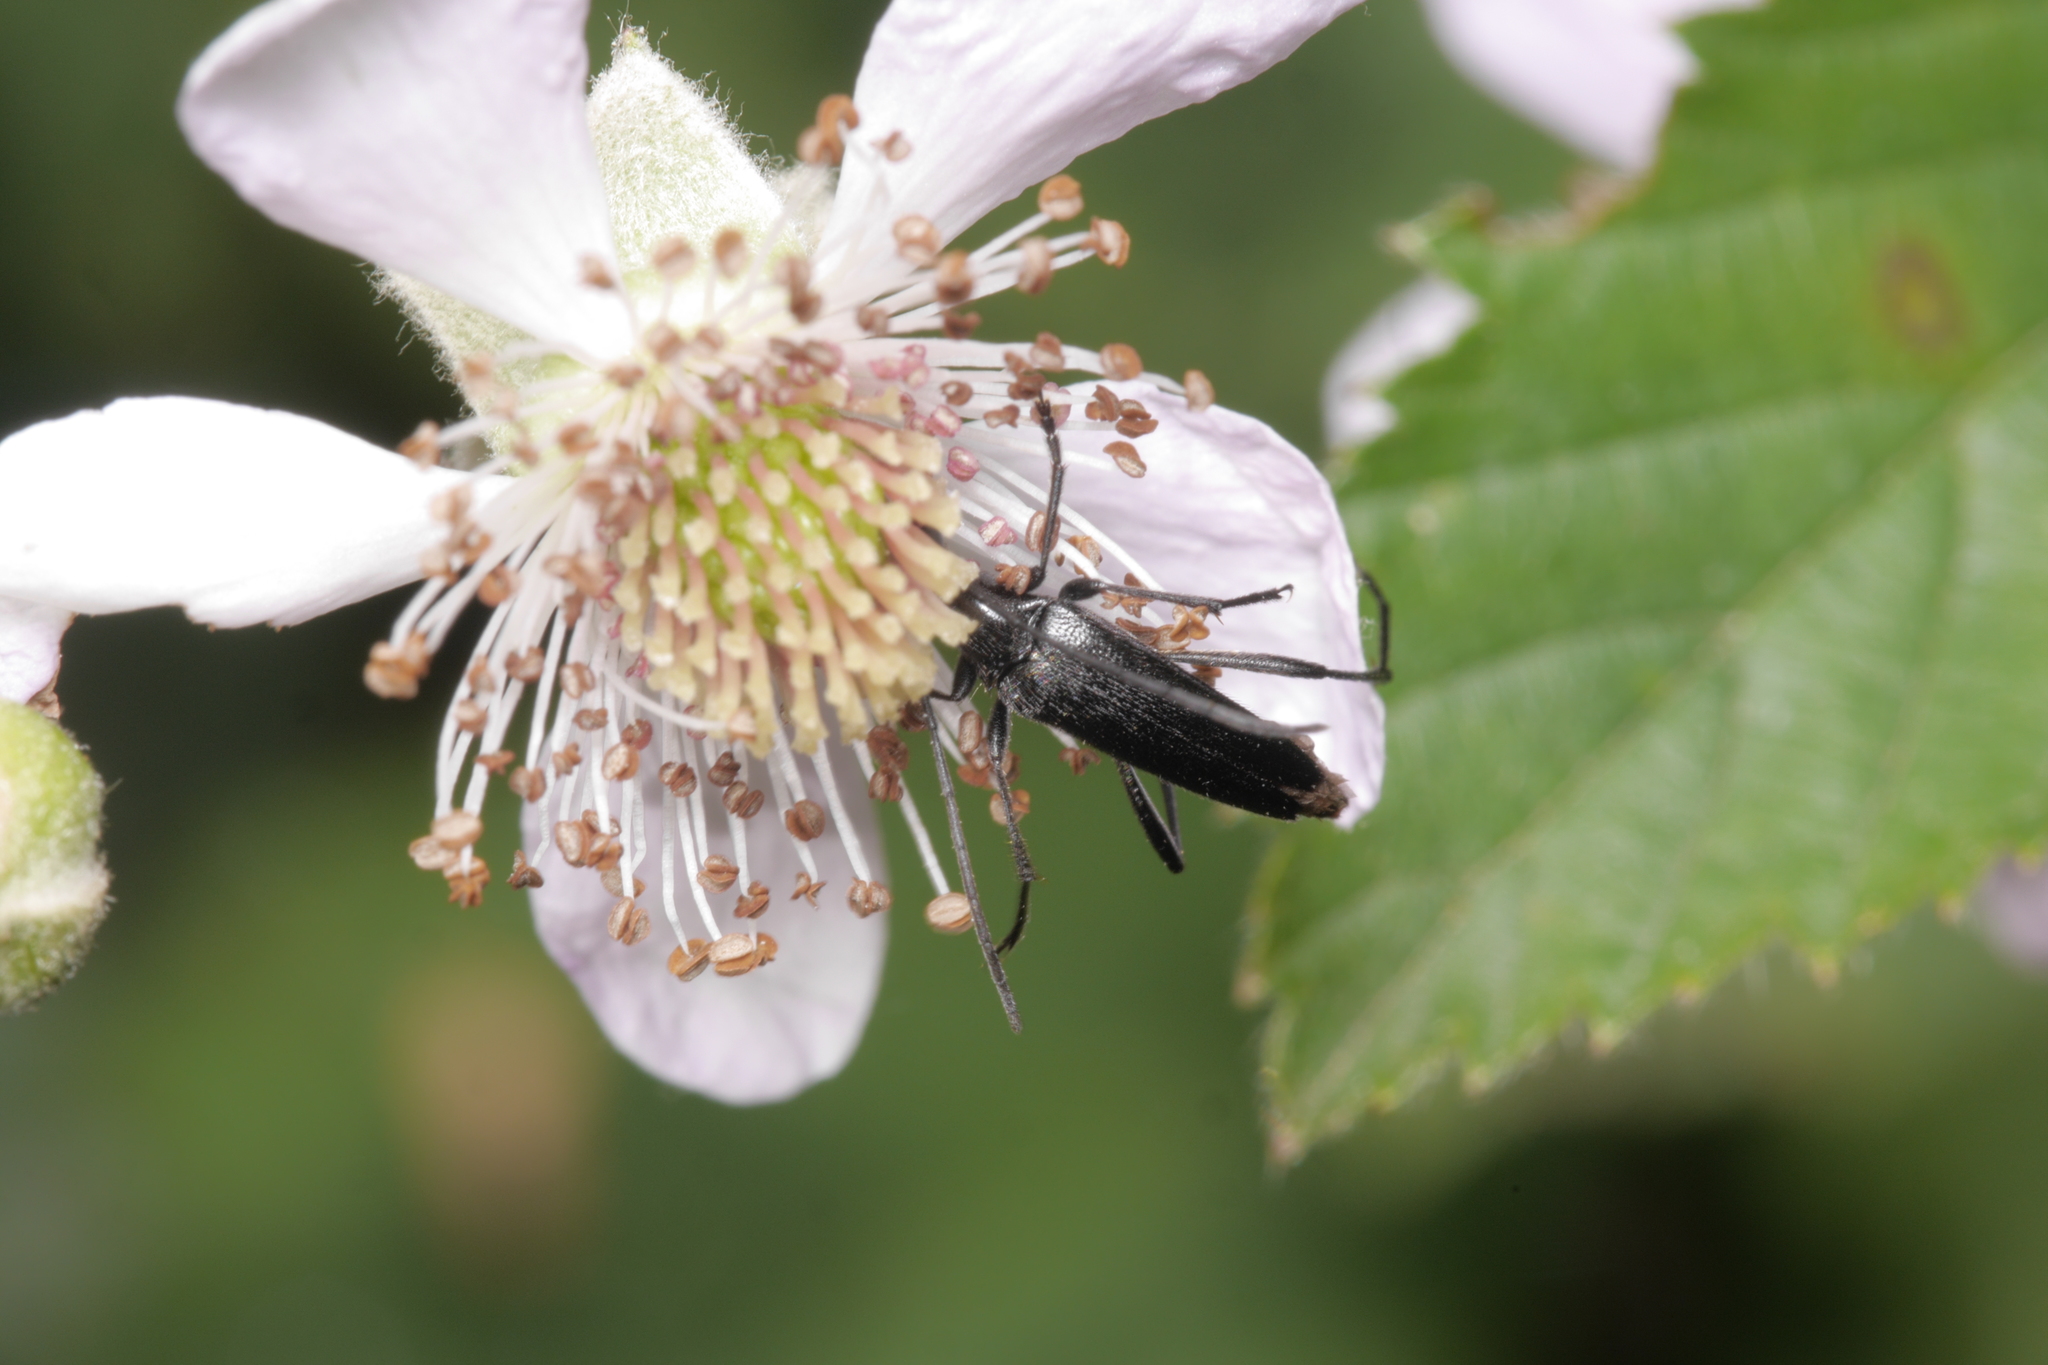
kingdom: Animalia
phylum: Arthropoda
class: Insecta
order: Coleoptera
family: Cerambycidae
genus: Stenurella
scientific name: Stenurella nigra
